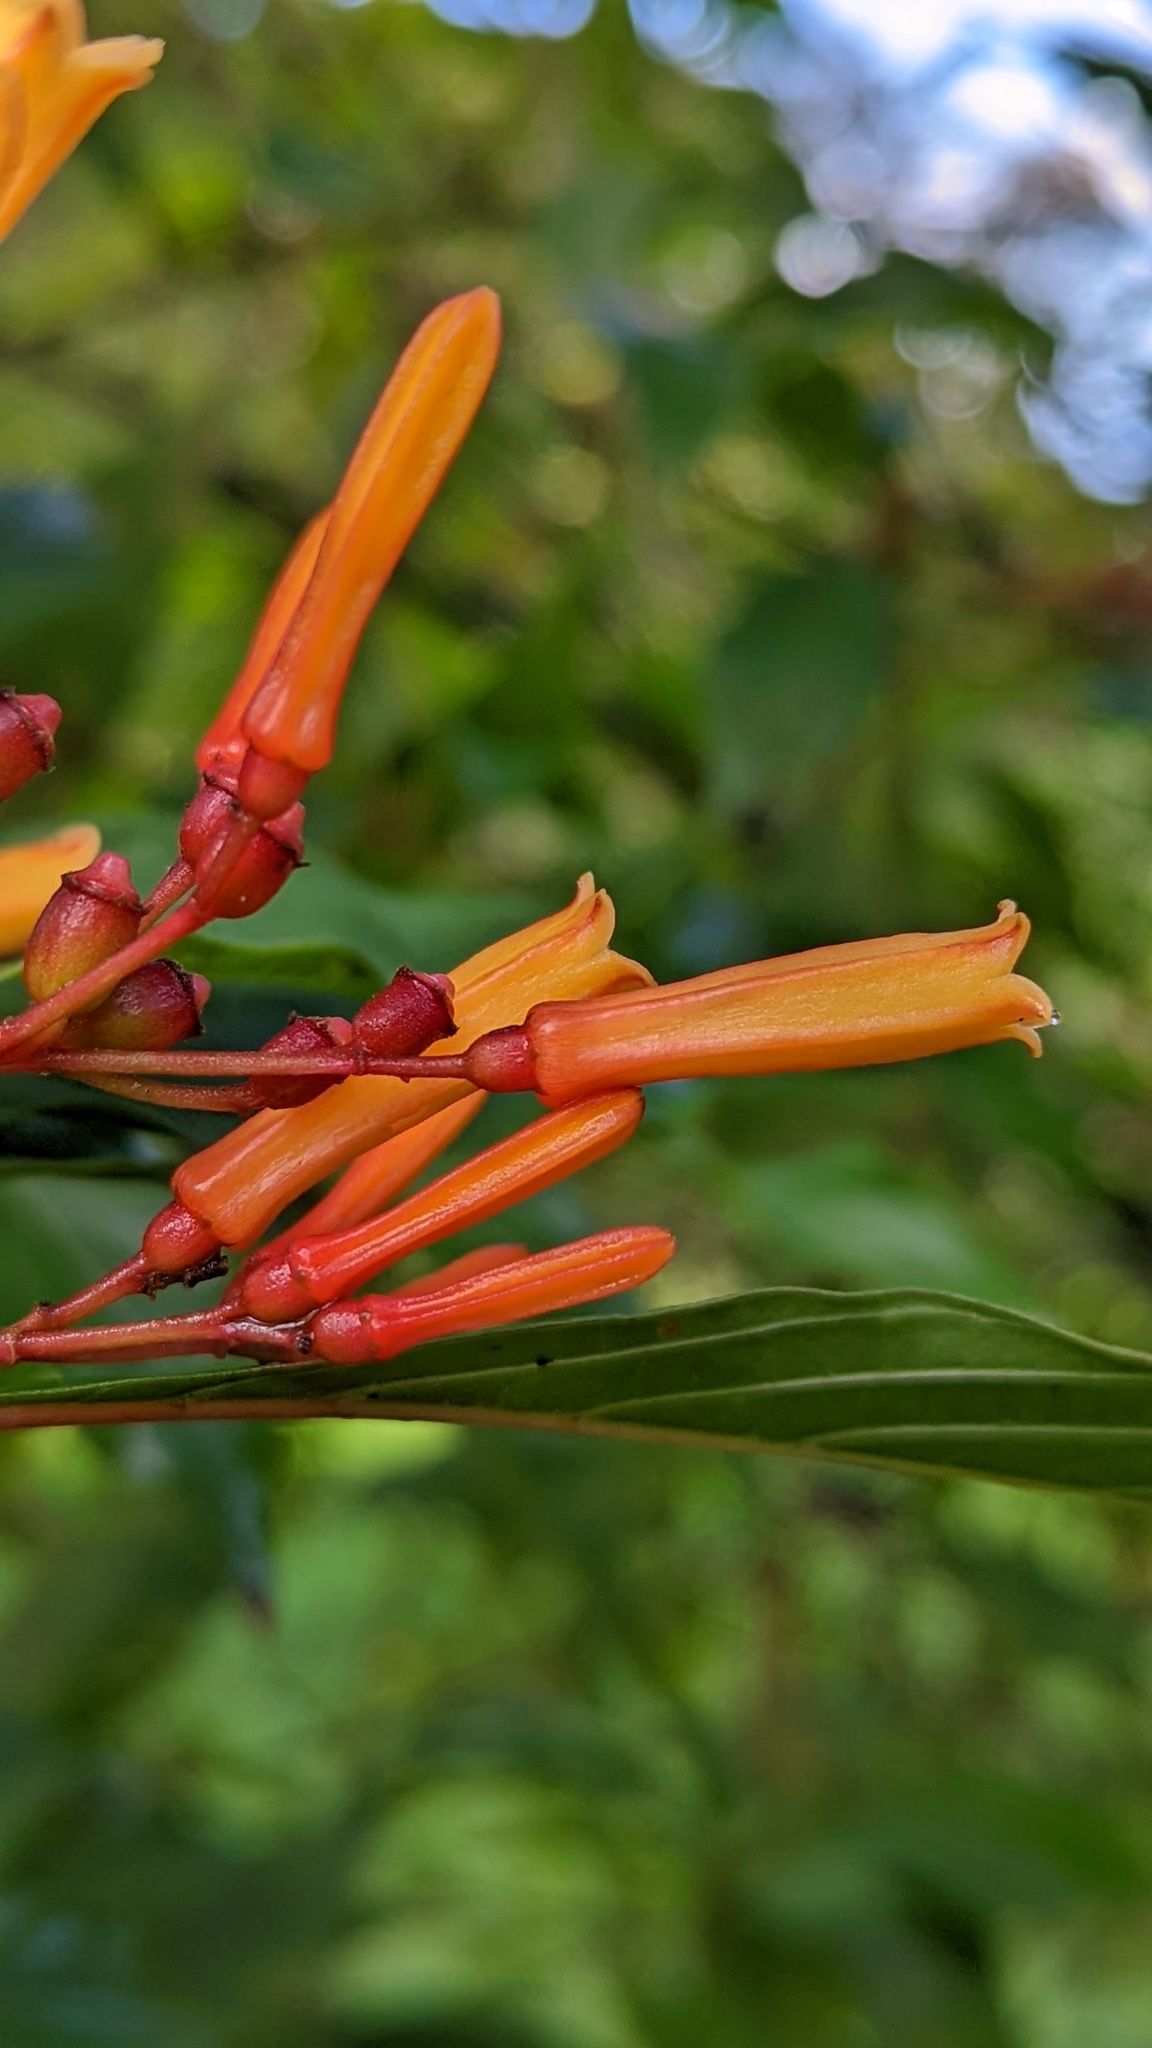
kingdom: Plantae
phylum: Tracheophyta
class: Magnoliopsida
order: Gentianales
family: Rubiaceae
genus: Hamelia
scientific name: Hamelia patens
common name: Redhead
